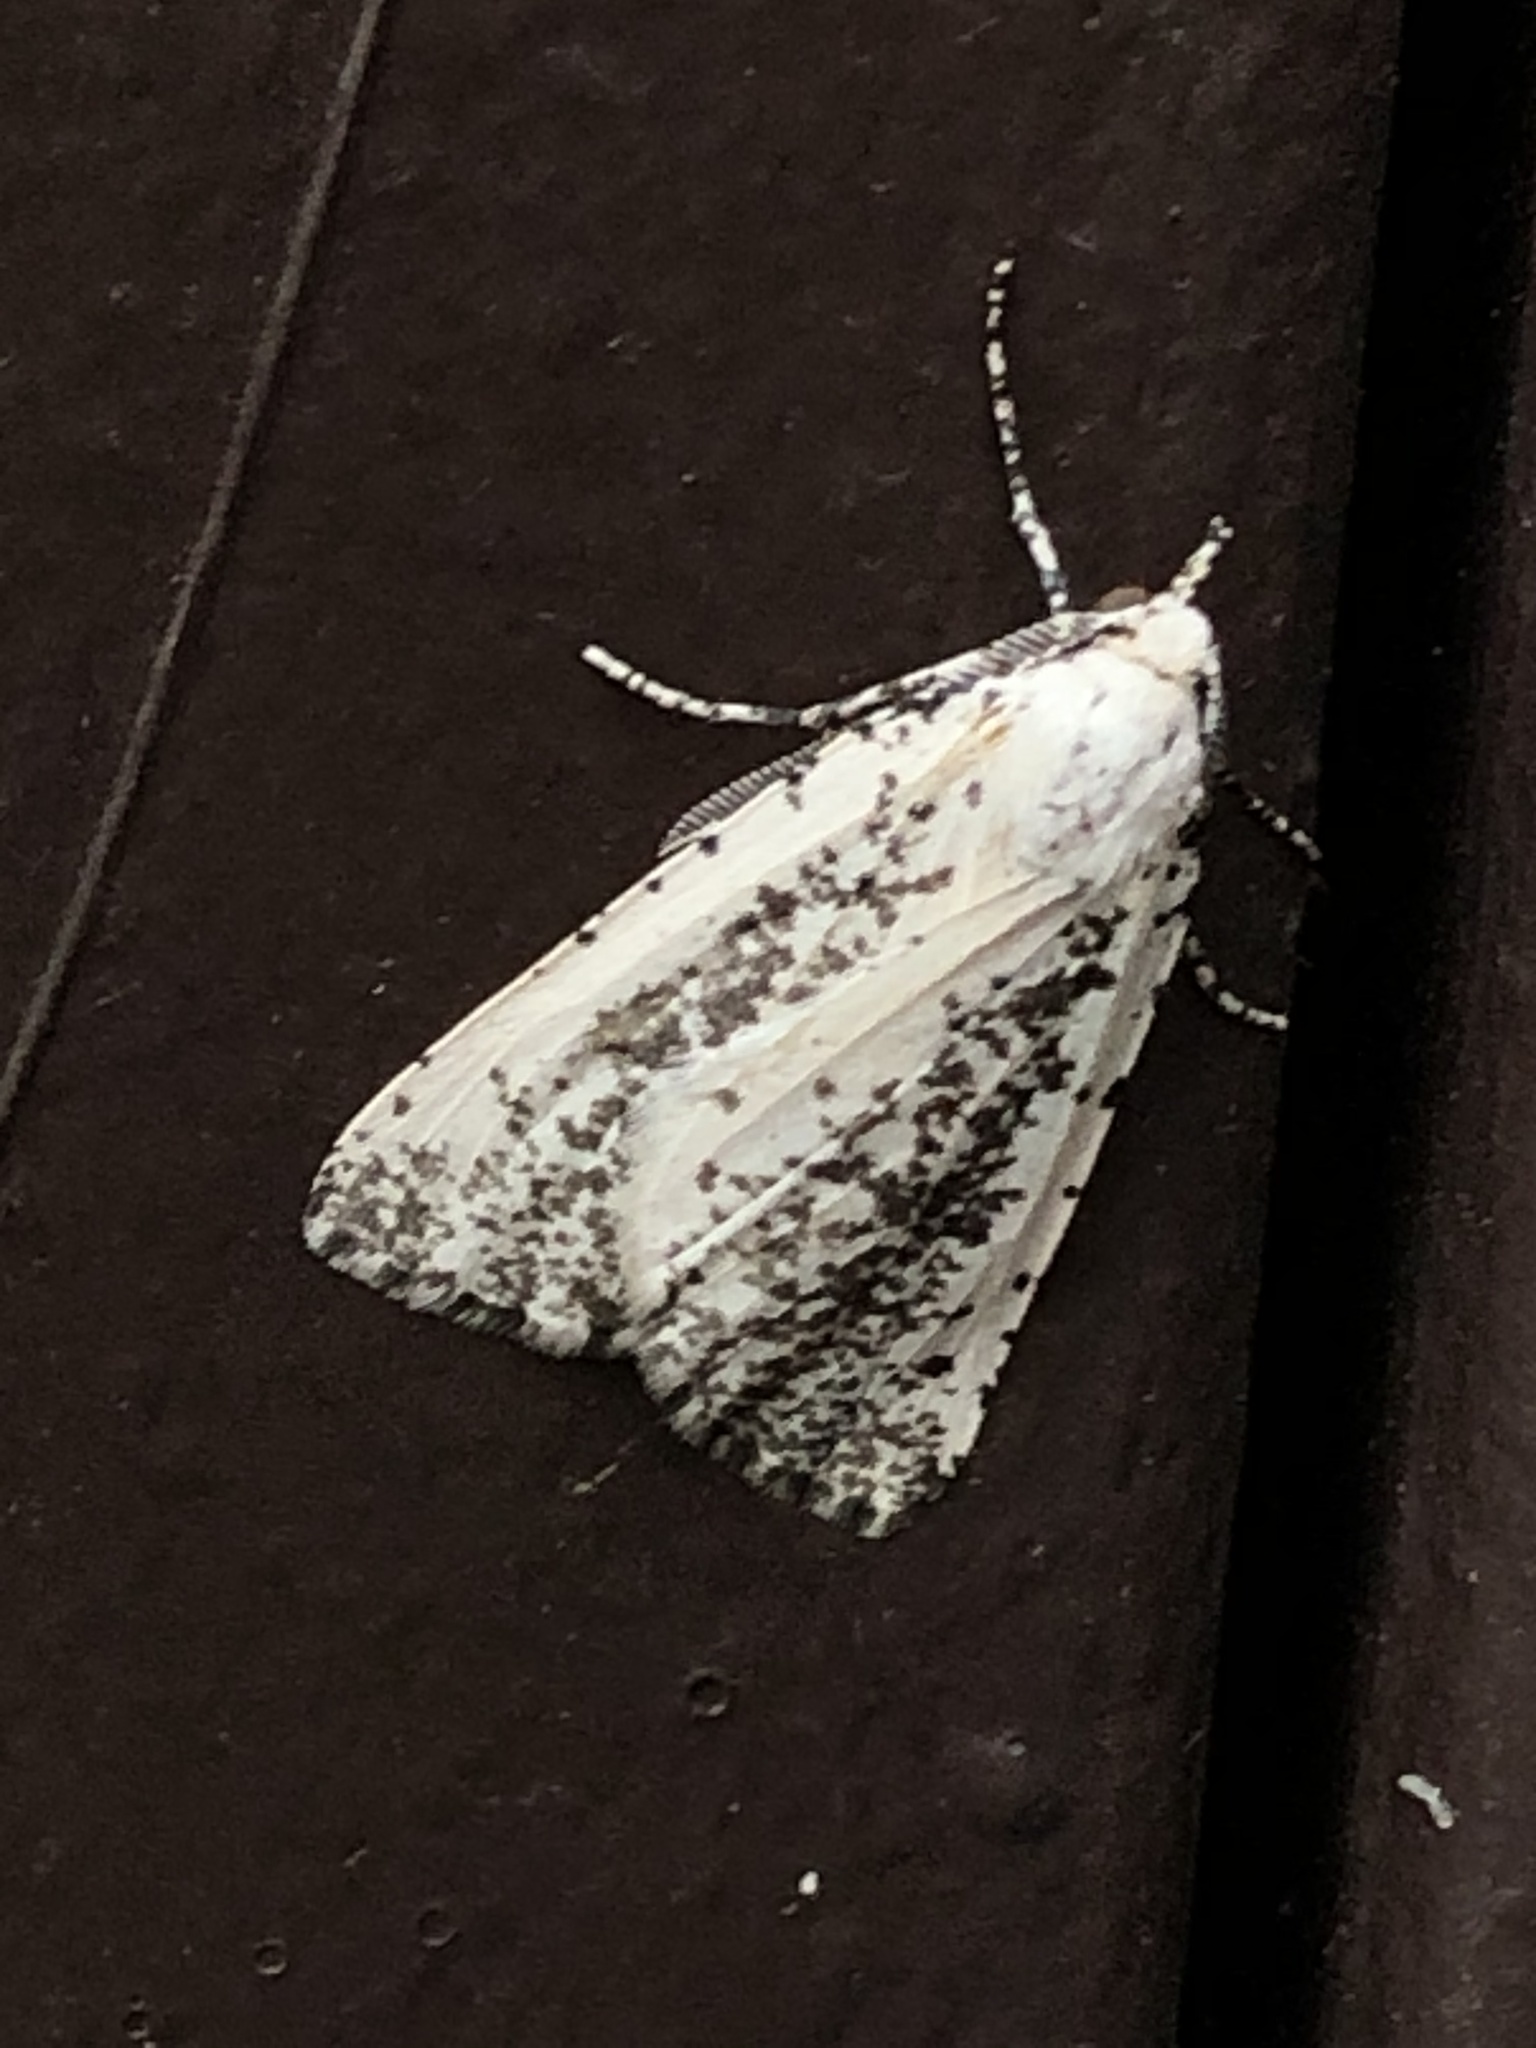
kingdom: Animalia
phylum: Arthropoda
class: Insecta
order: Lepidoptera
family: Geometridae
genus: Eucaterva
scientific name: Eucaterva variaria
